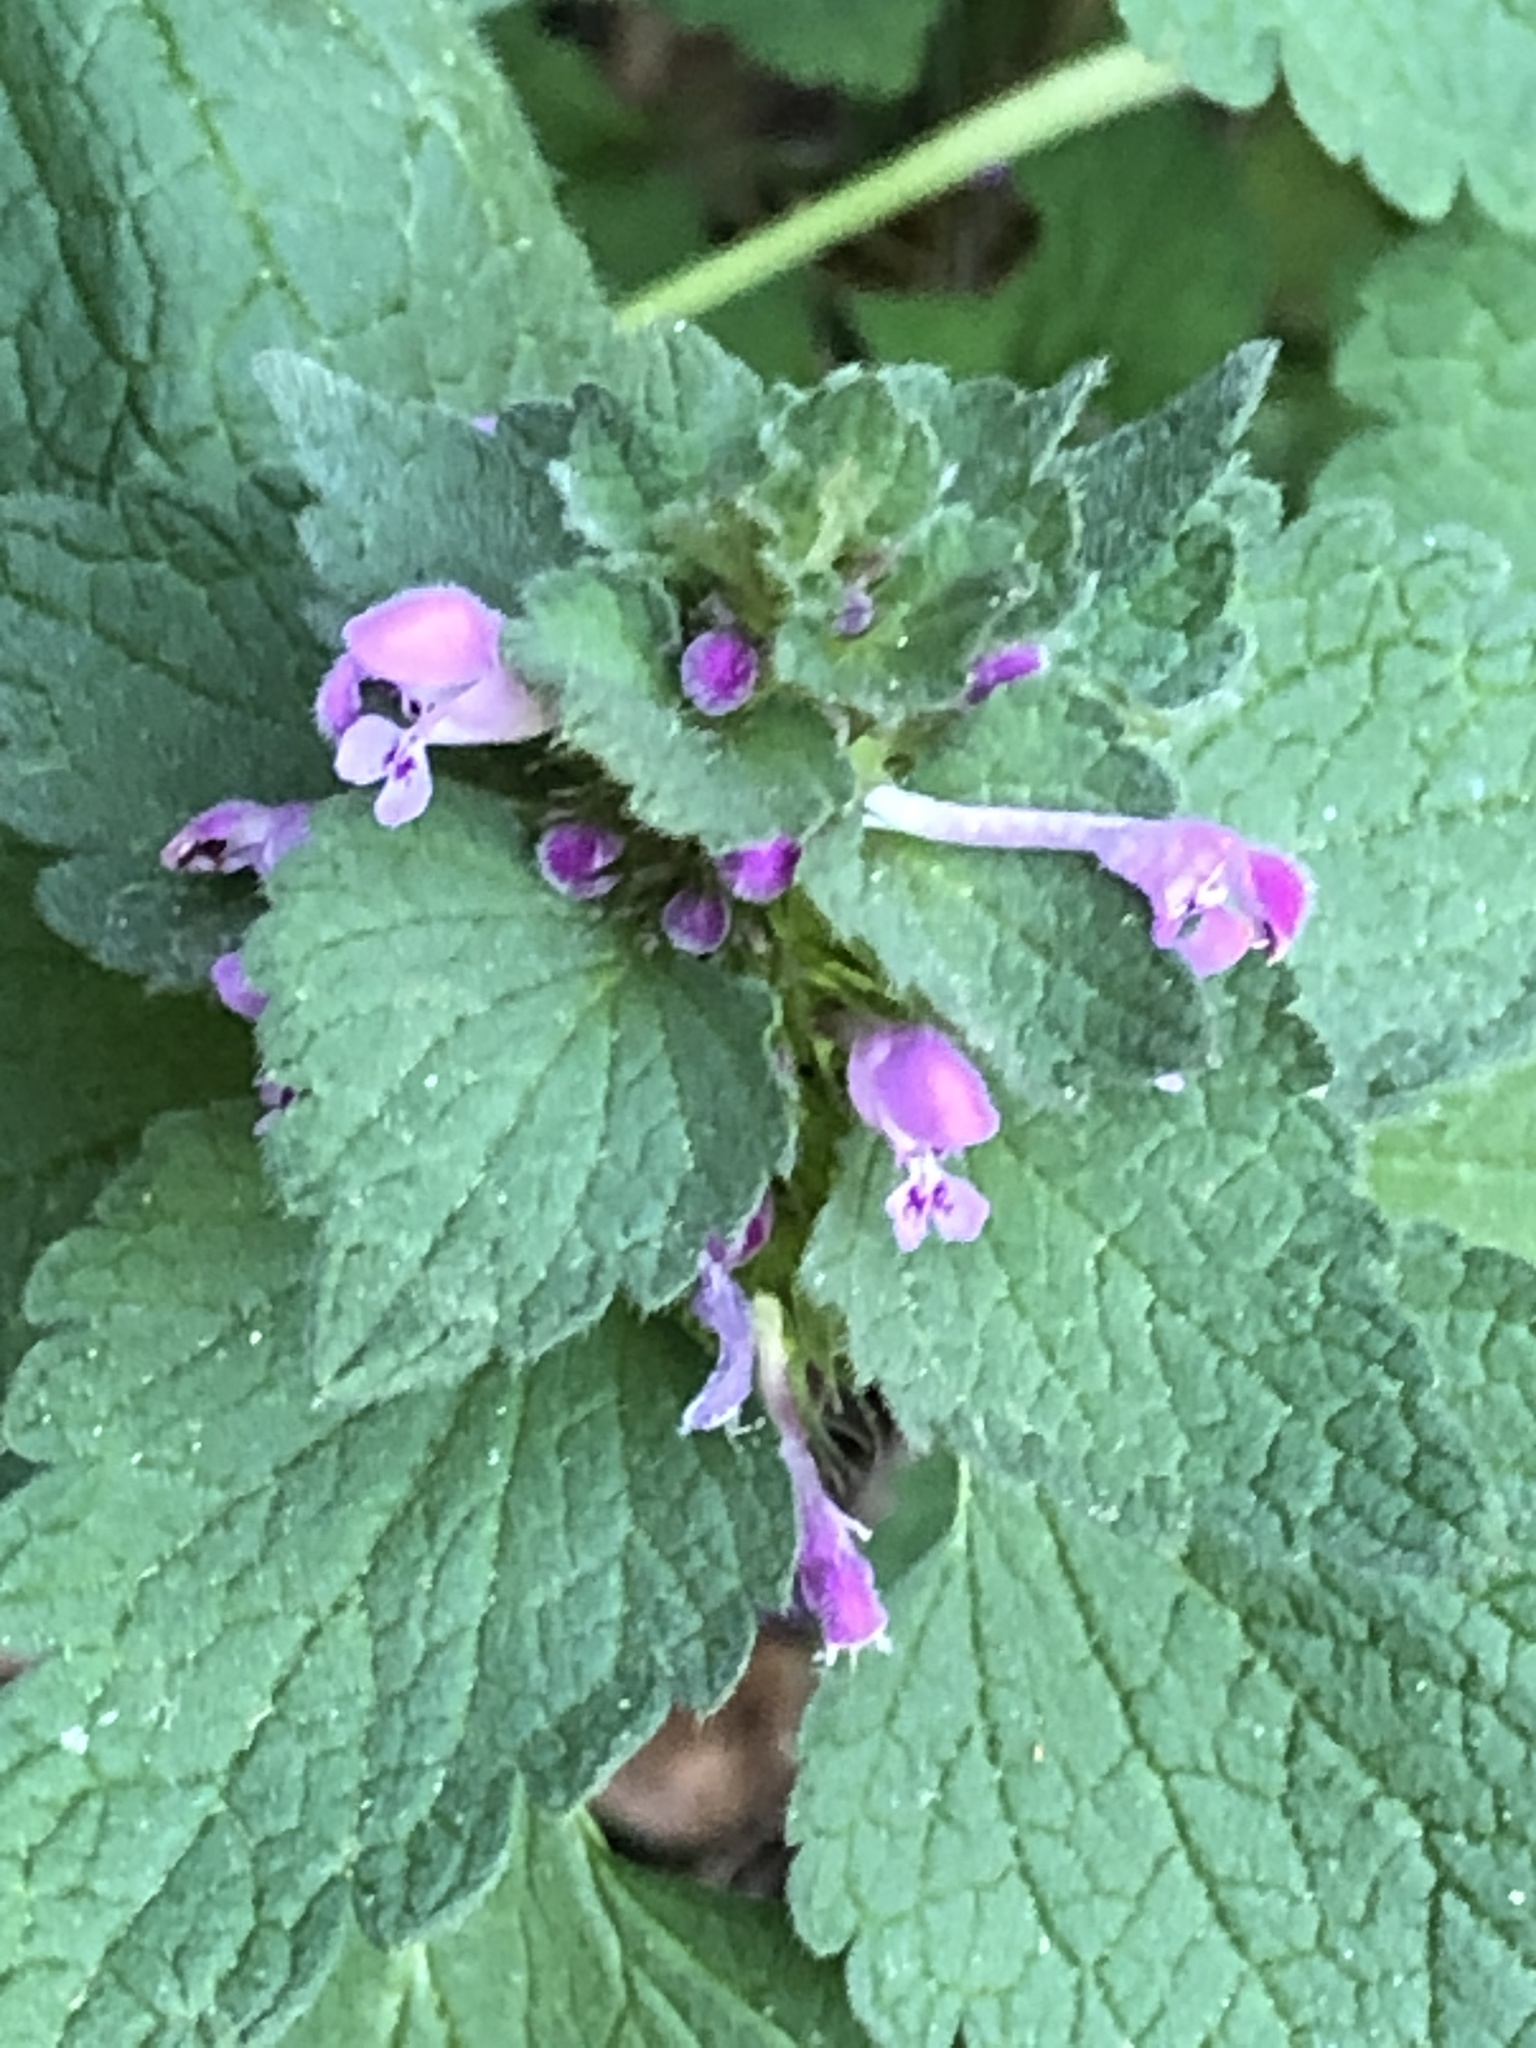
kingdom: Plantae
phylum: Tracheophyta
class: Magnoliopsida
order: Lamiales
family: Lamiaceae
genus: Lamium
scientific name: Lamium purpureum
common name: Red dead-nettle
